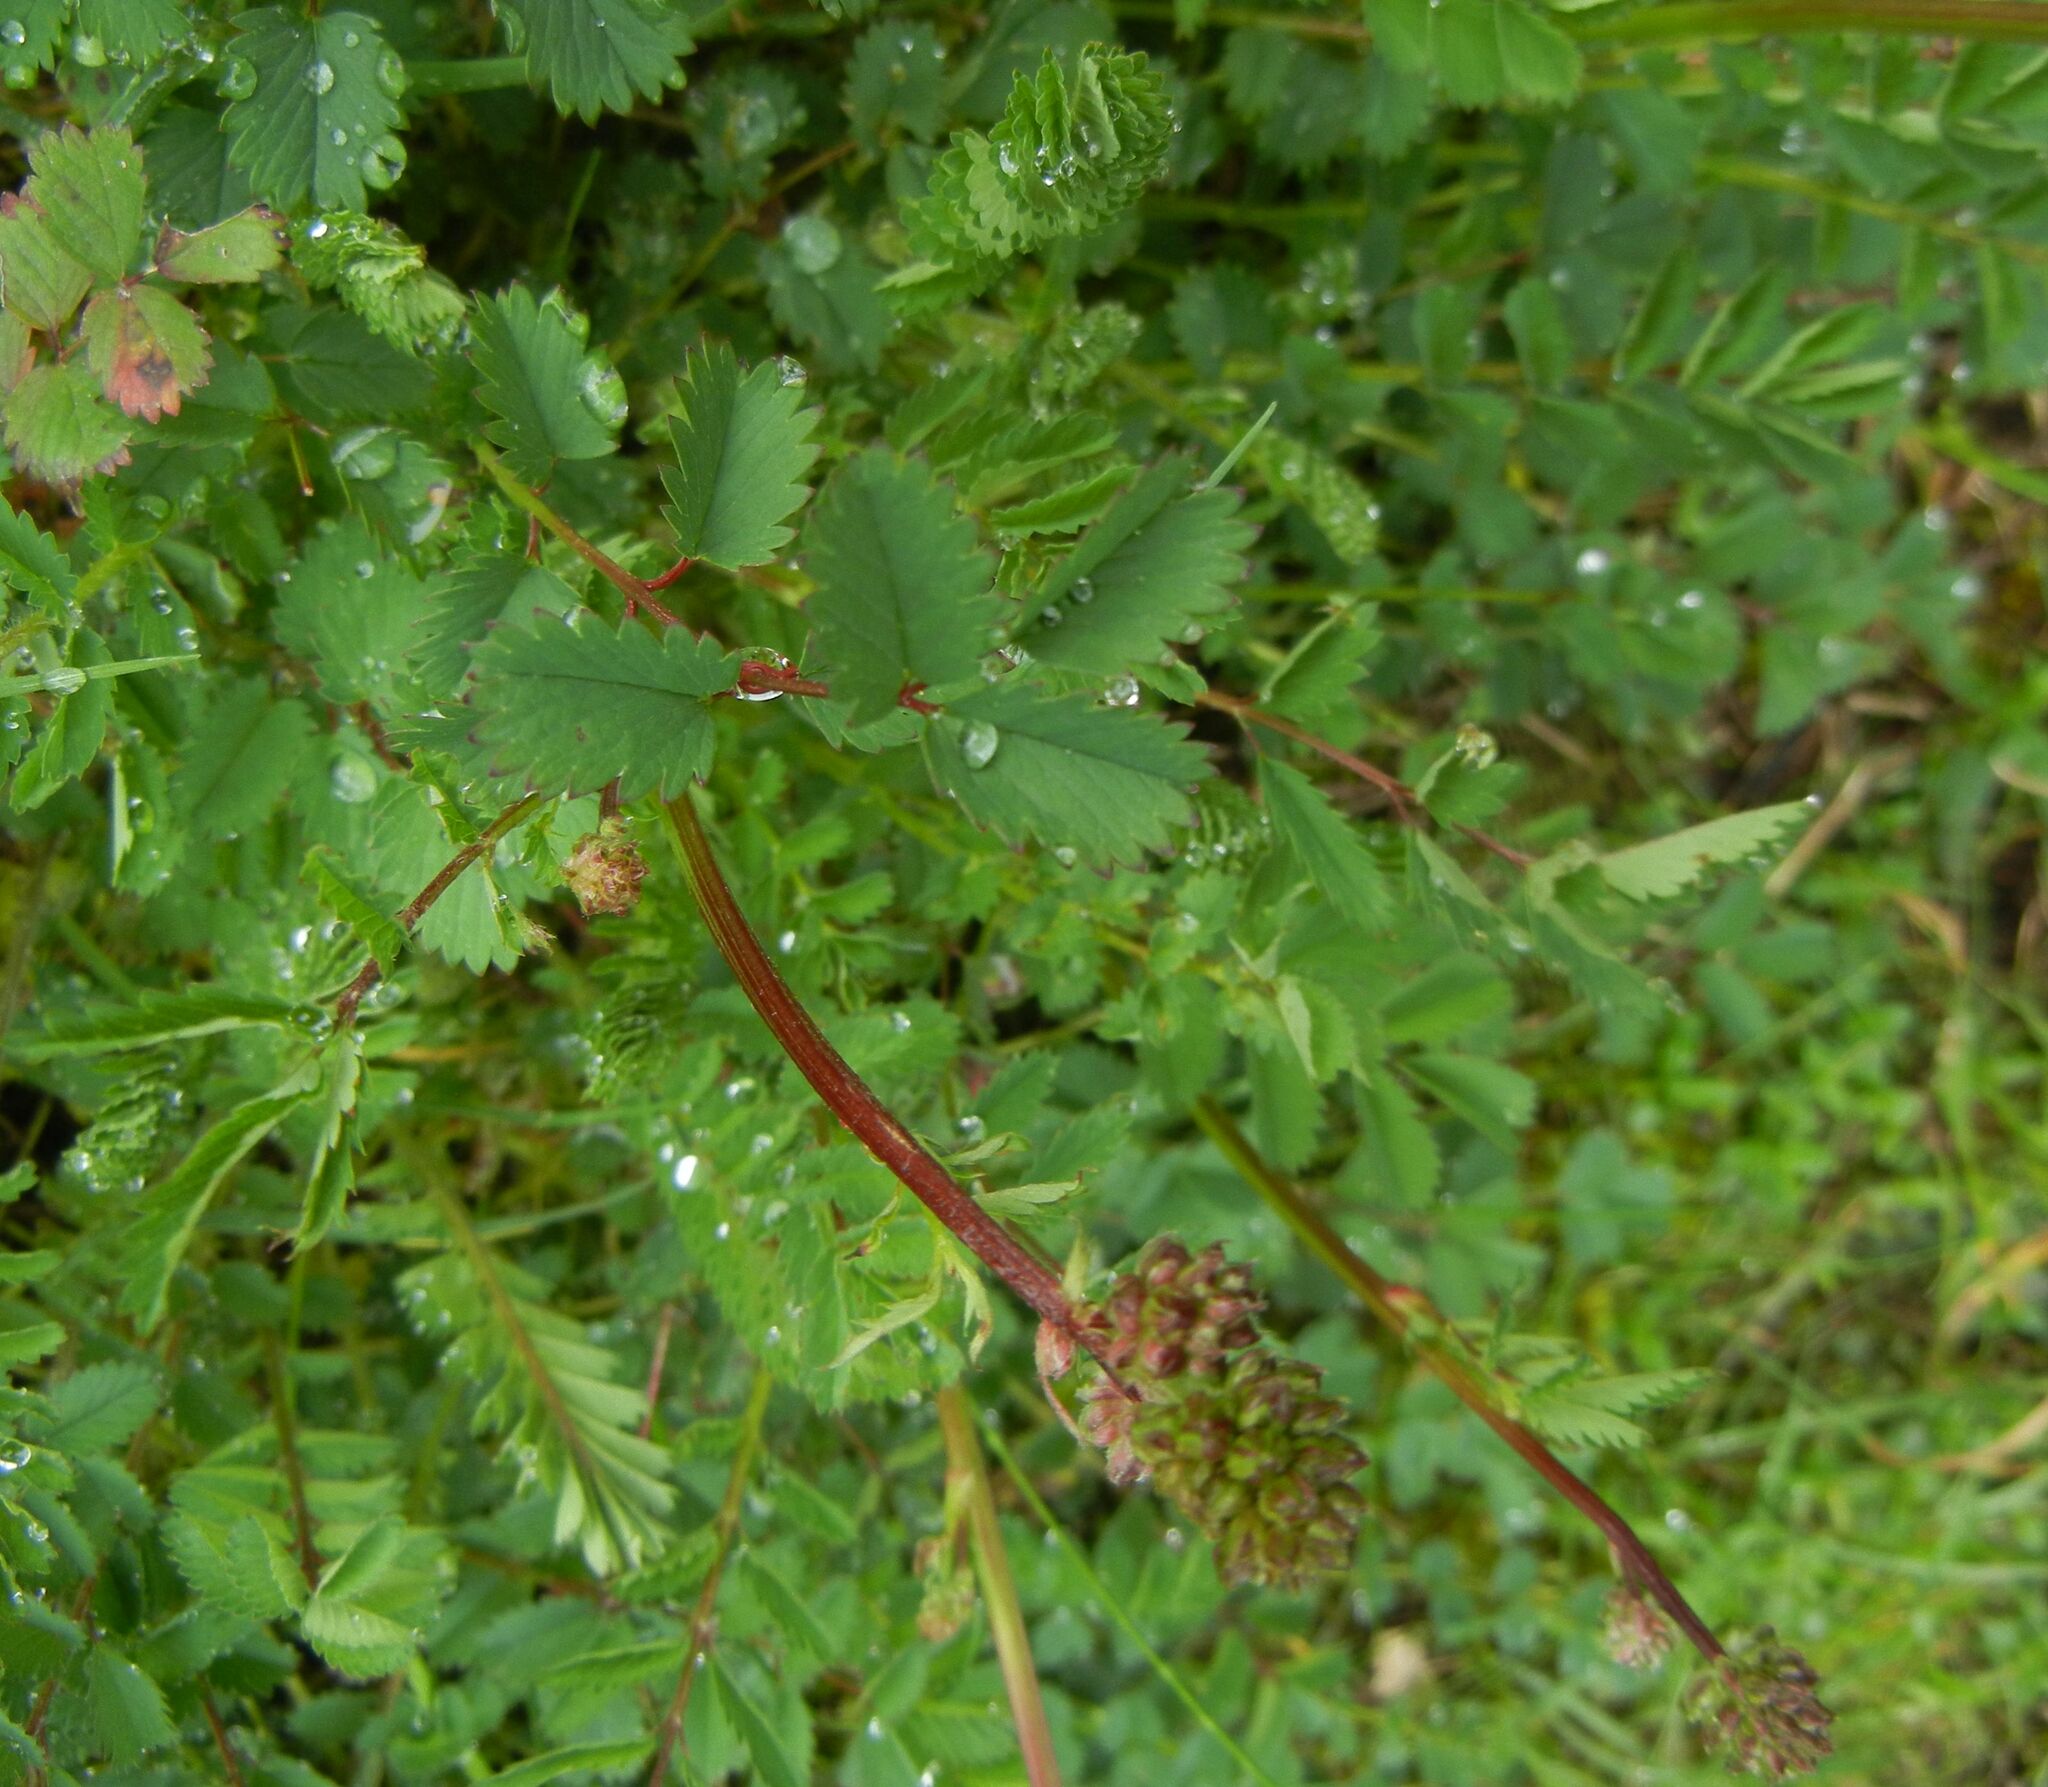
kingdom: Plantae
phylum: Tracheophyta
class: Magnoliopsida
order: Rosales
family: Rosaceae
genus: Poterium
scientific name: Poterium sanguisorba
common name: Salad burnet
